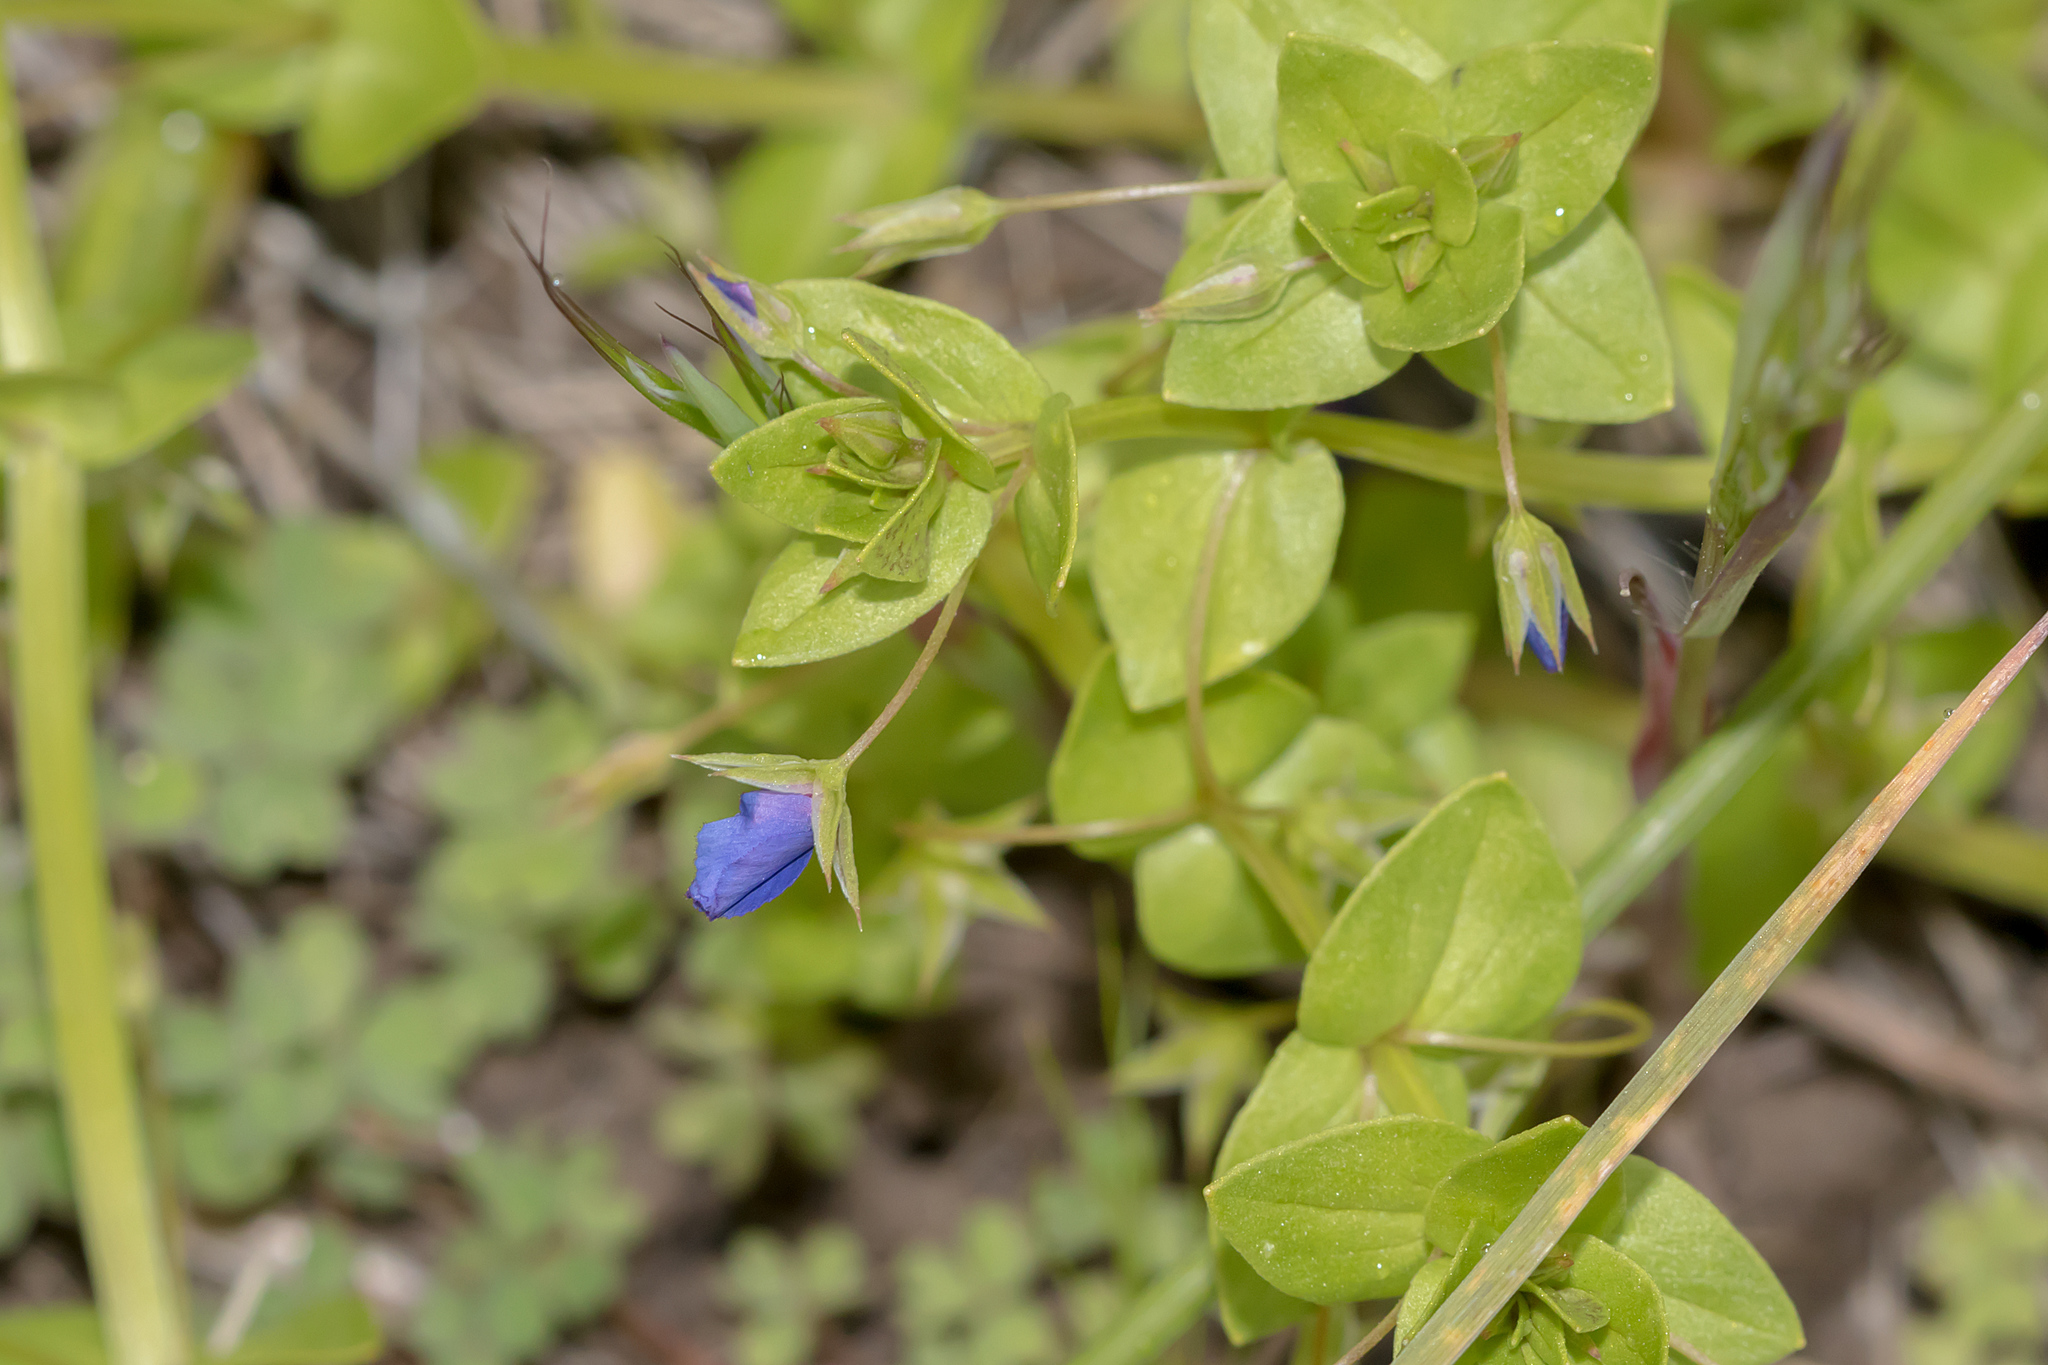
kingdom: Plantae
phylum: Tracheophyta
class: Magnoliopsida
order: Ericales
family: Primulaceae
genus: Lysimachia
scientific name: Lysimachia loeflingii
